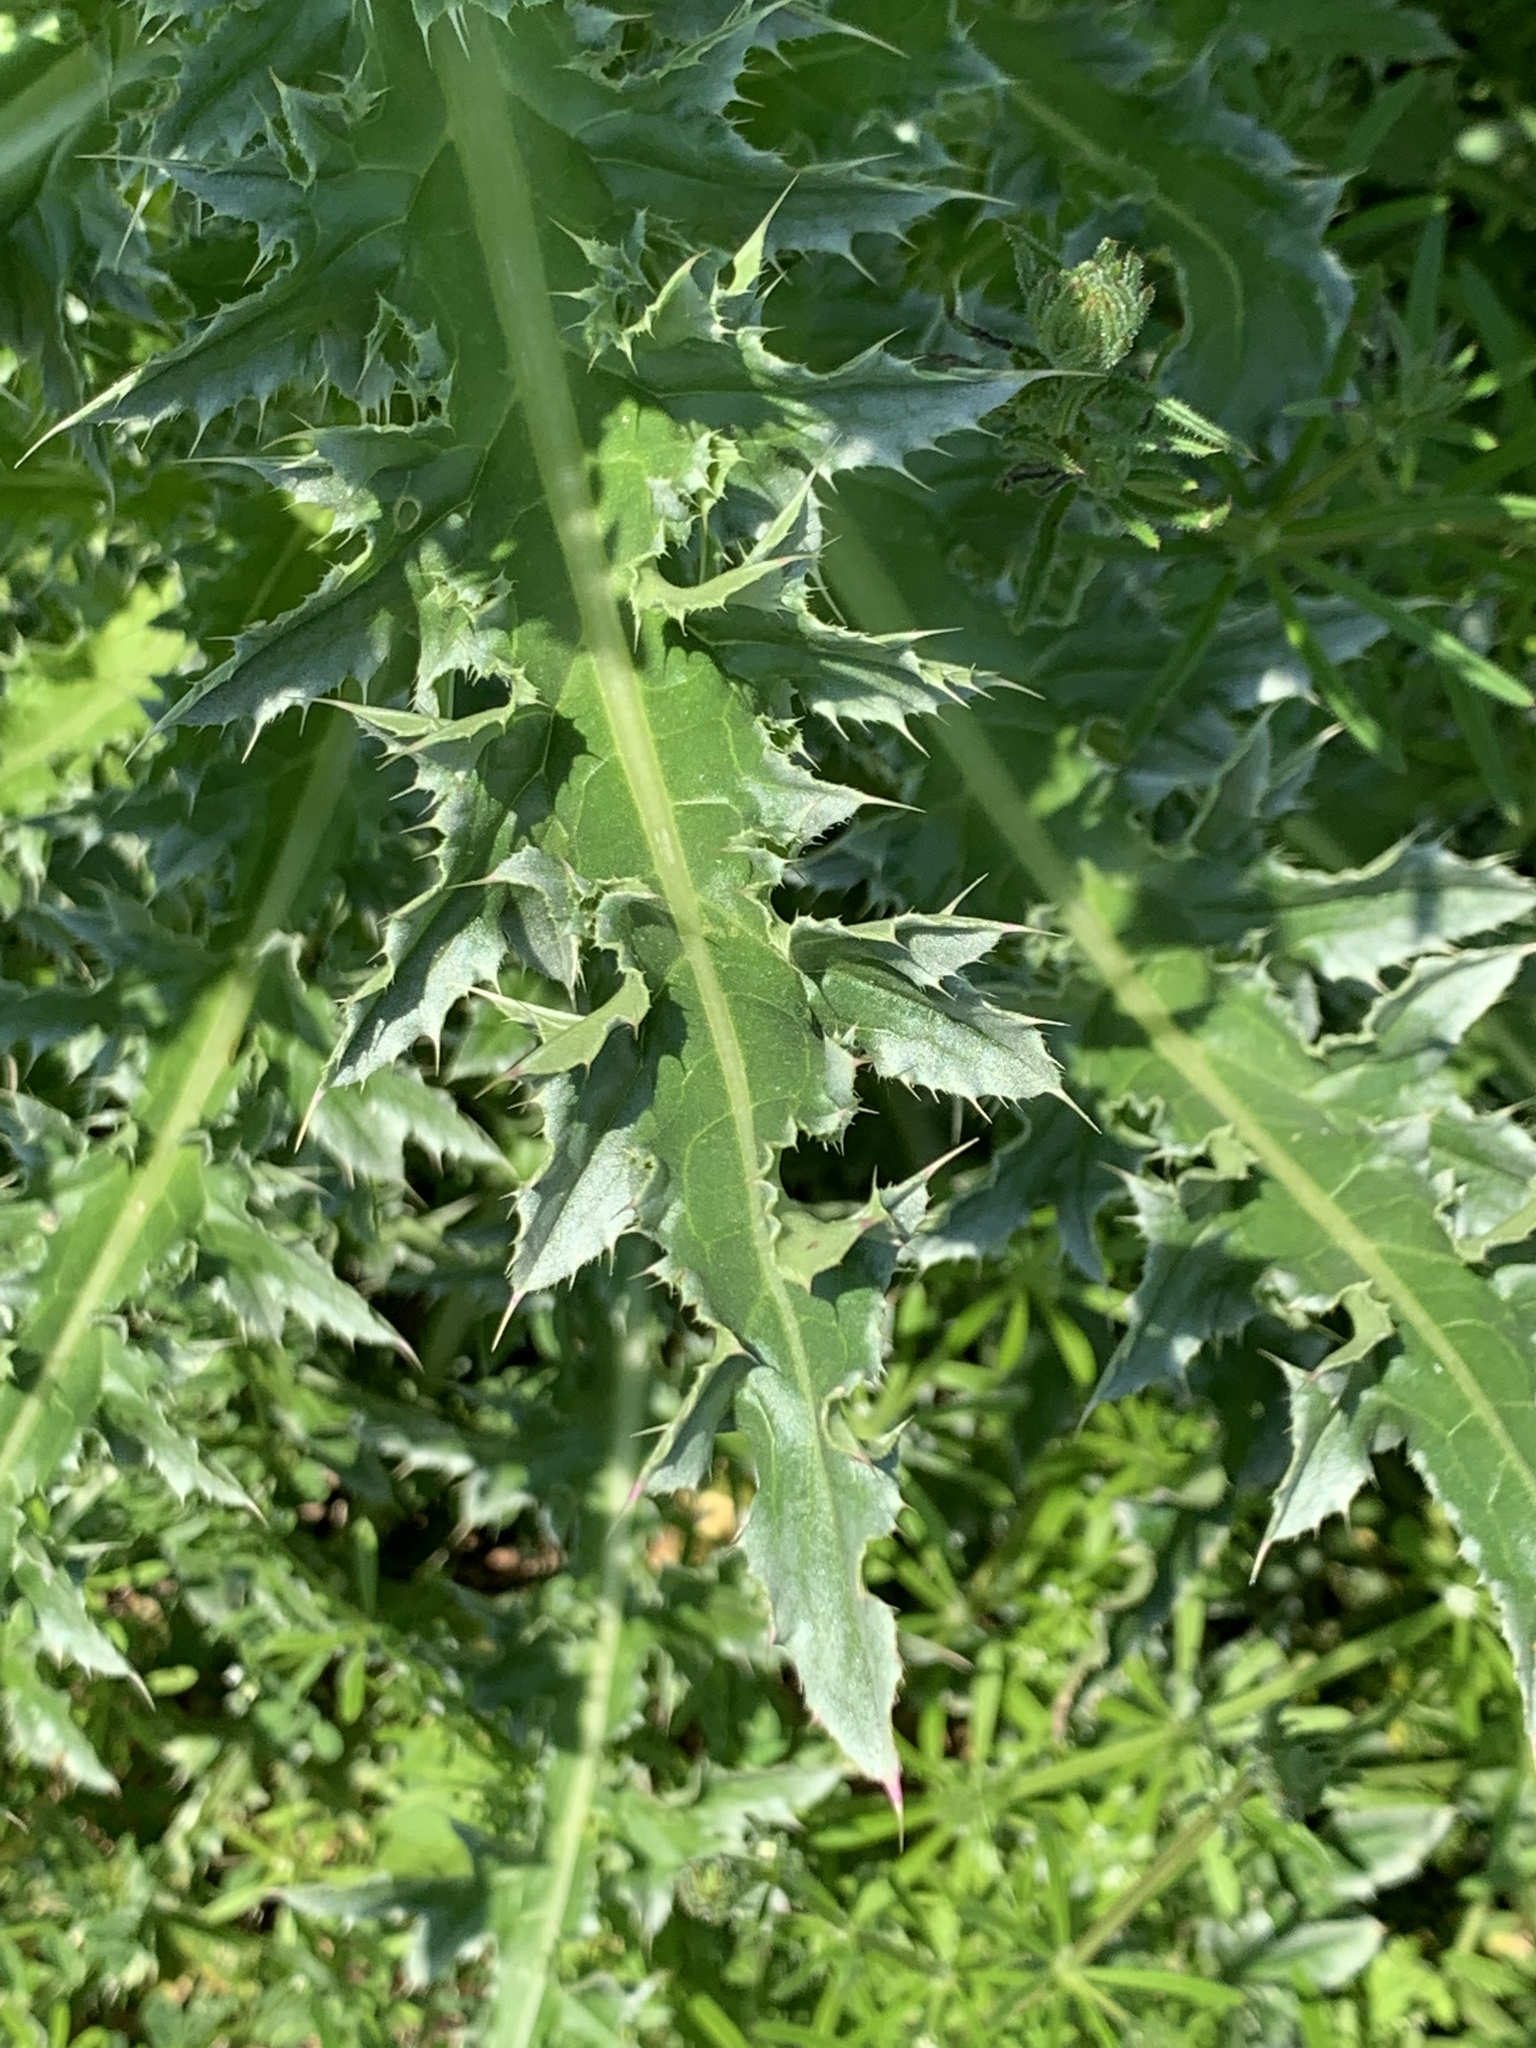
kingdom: Plantae
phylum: Tracheophyta
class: Magnoliopsida
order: Asterales
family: Asteraceae
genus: Carduus
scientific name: Carduus nutans
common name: Musk thistle
